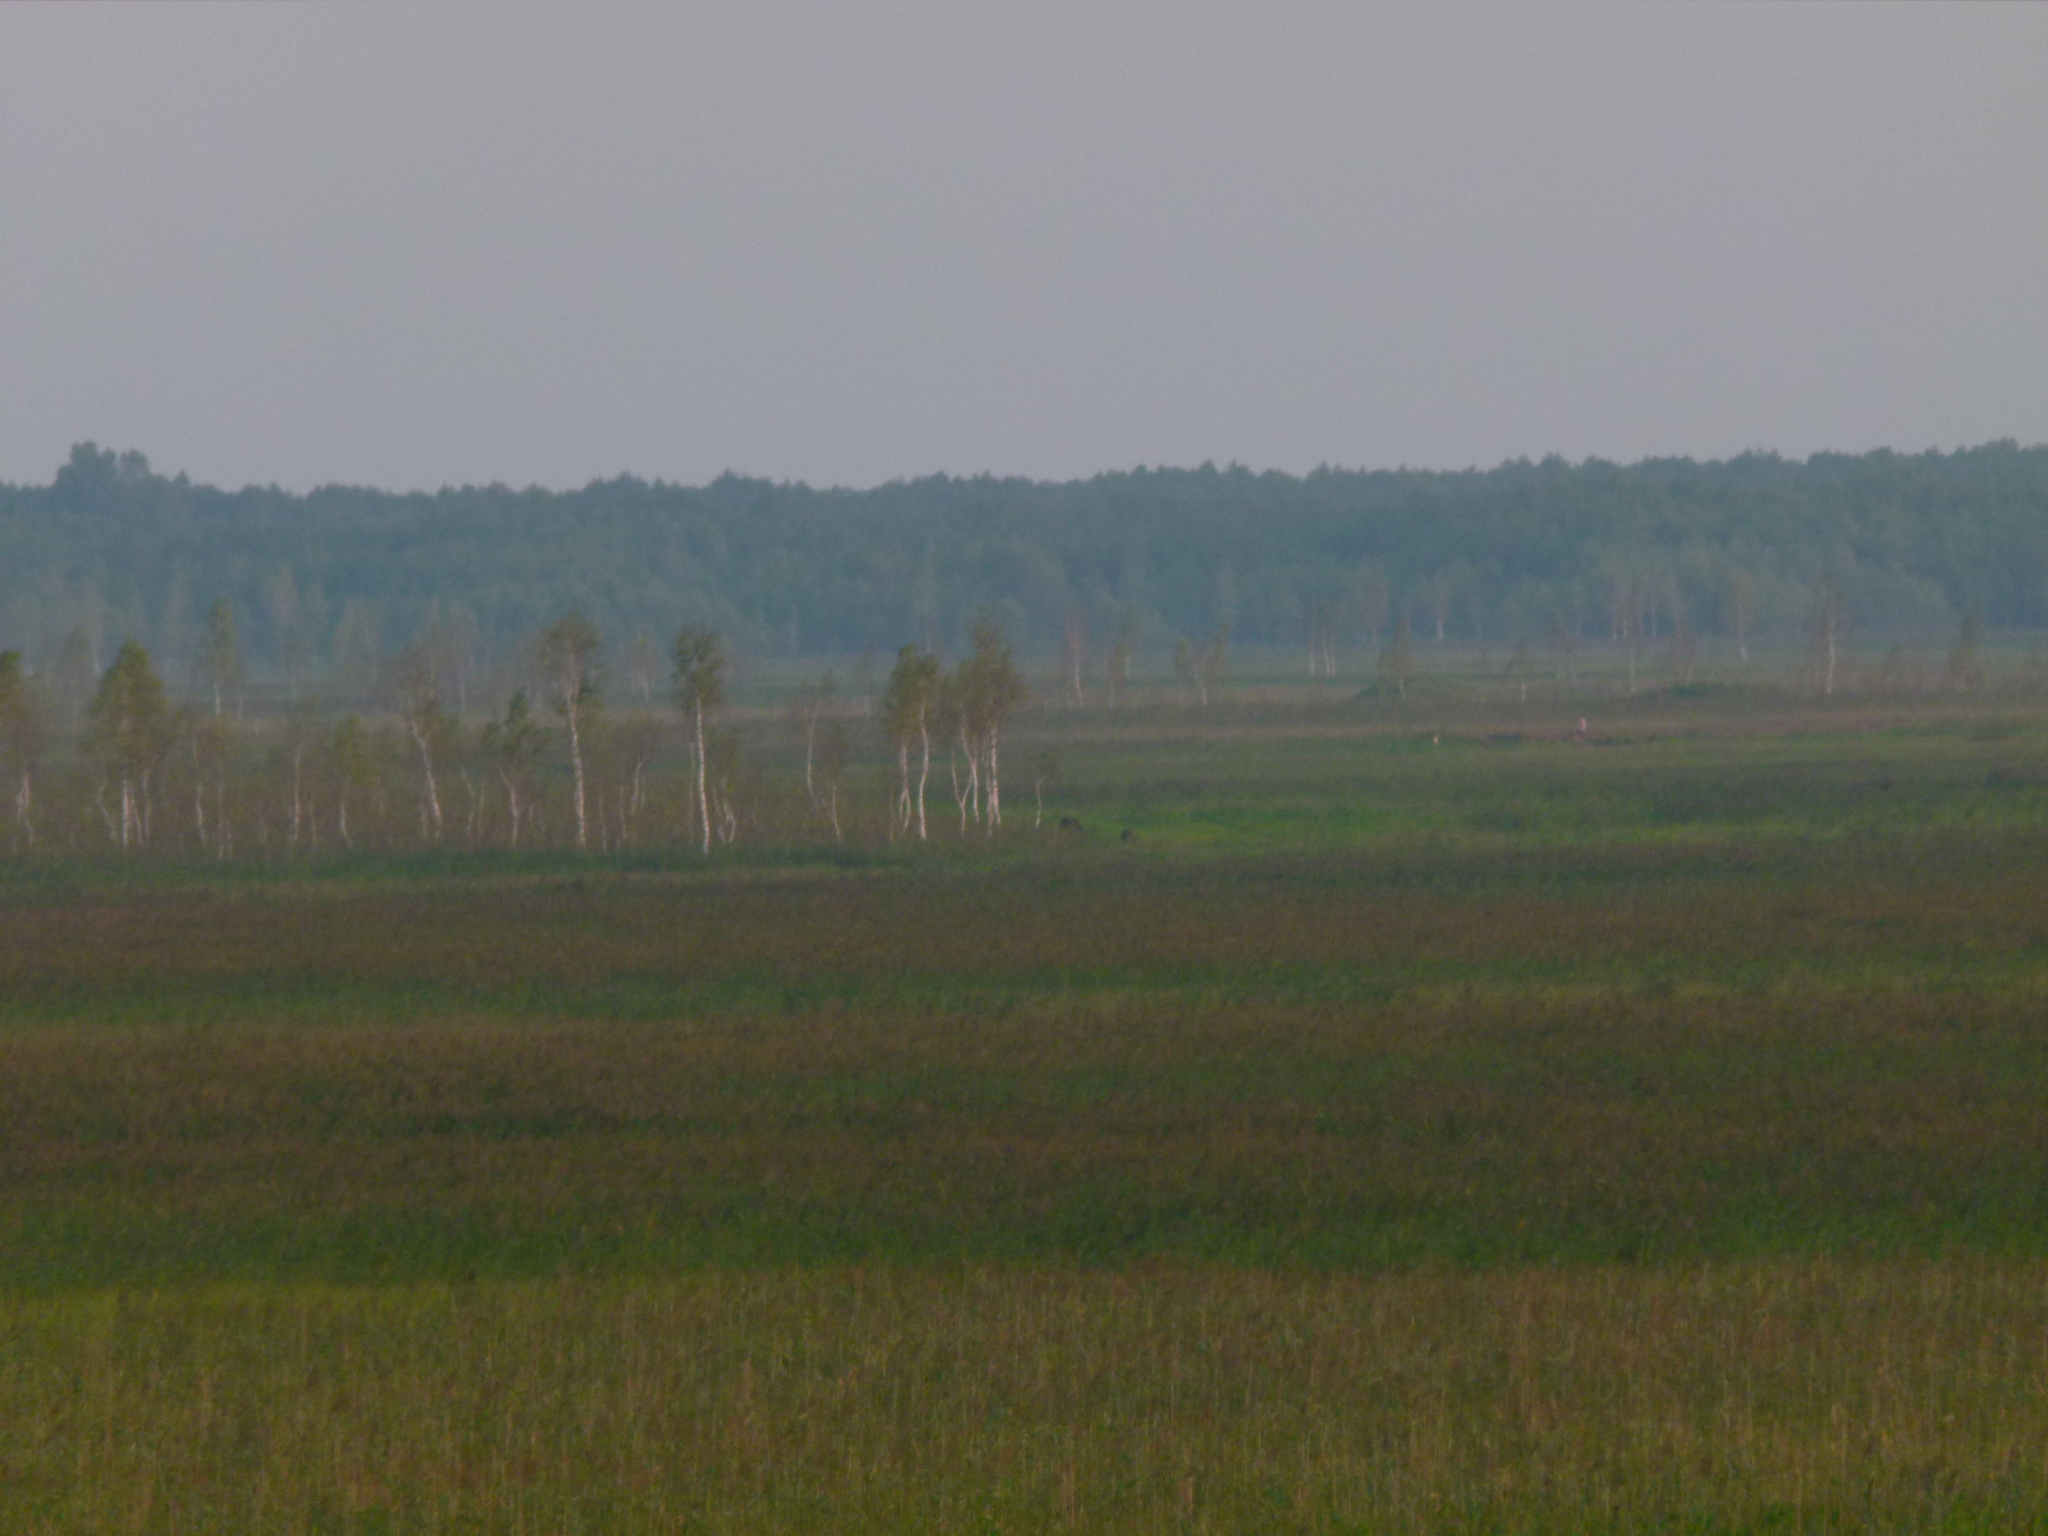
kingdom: Animalia
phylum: Chordata
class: Mammalia
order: Artiodactyla
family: Cervidae
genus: Alces
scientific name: Alces alces
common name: Moose
